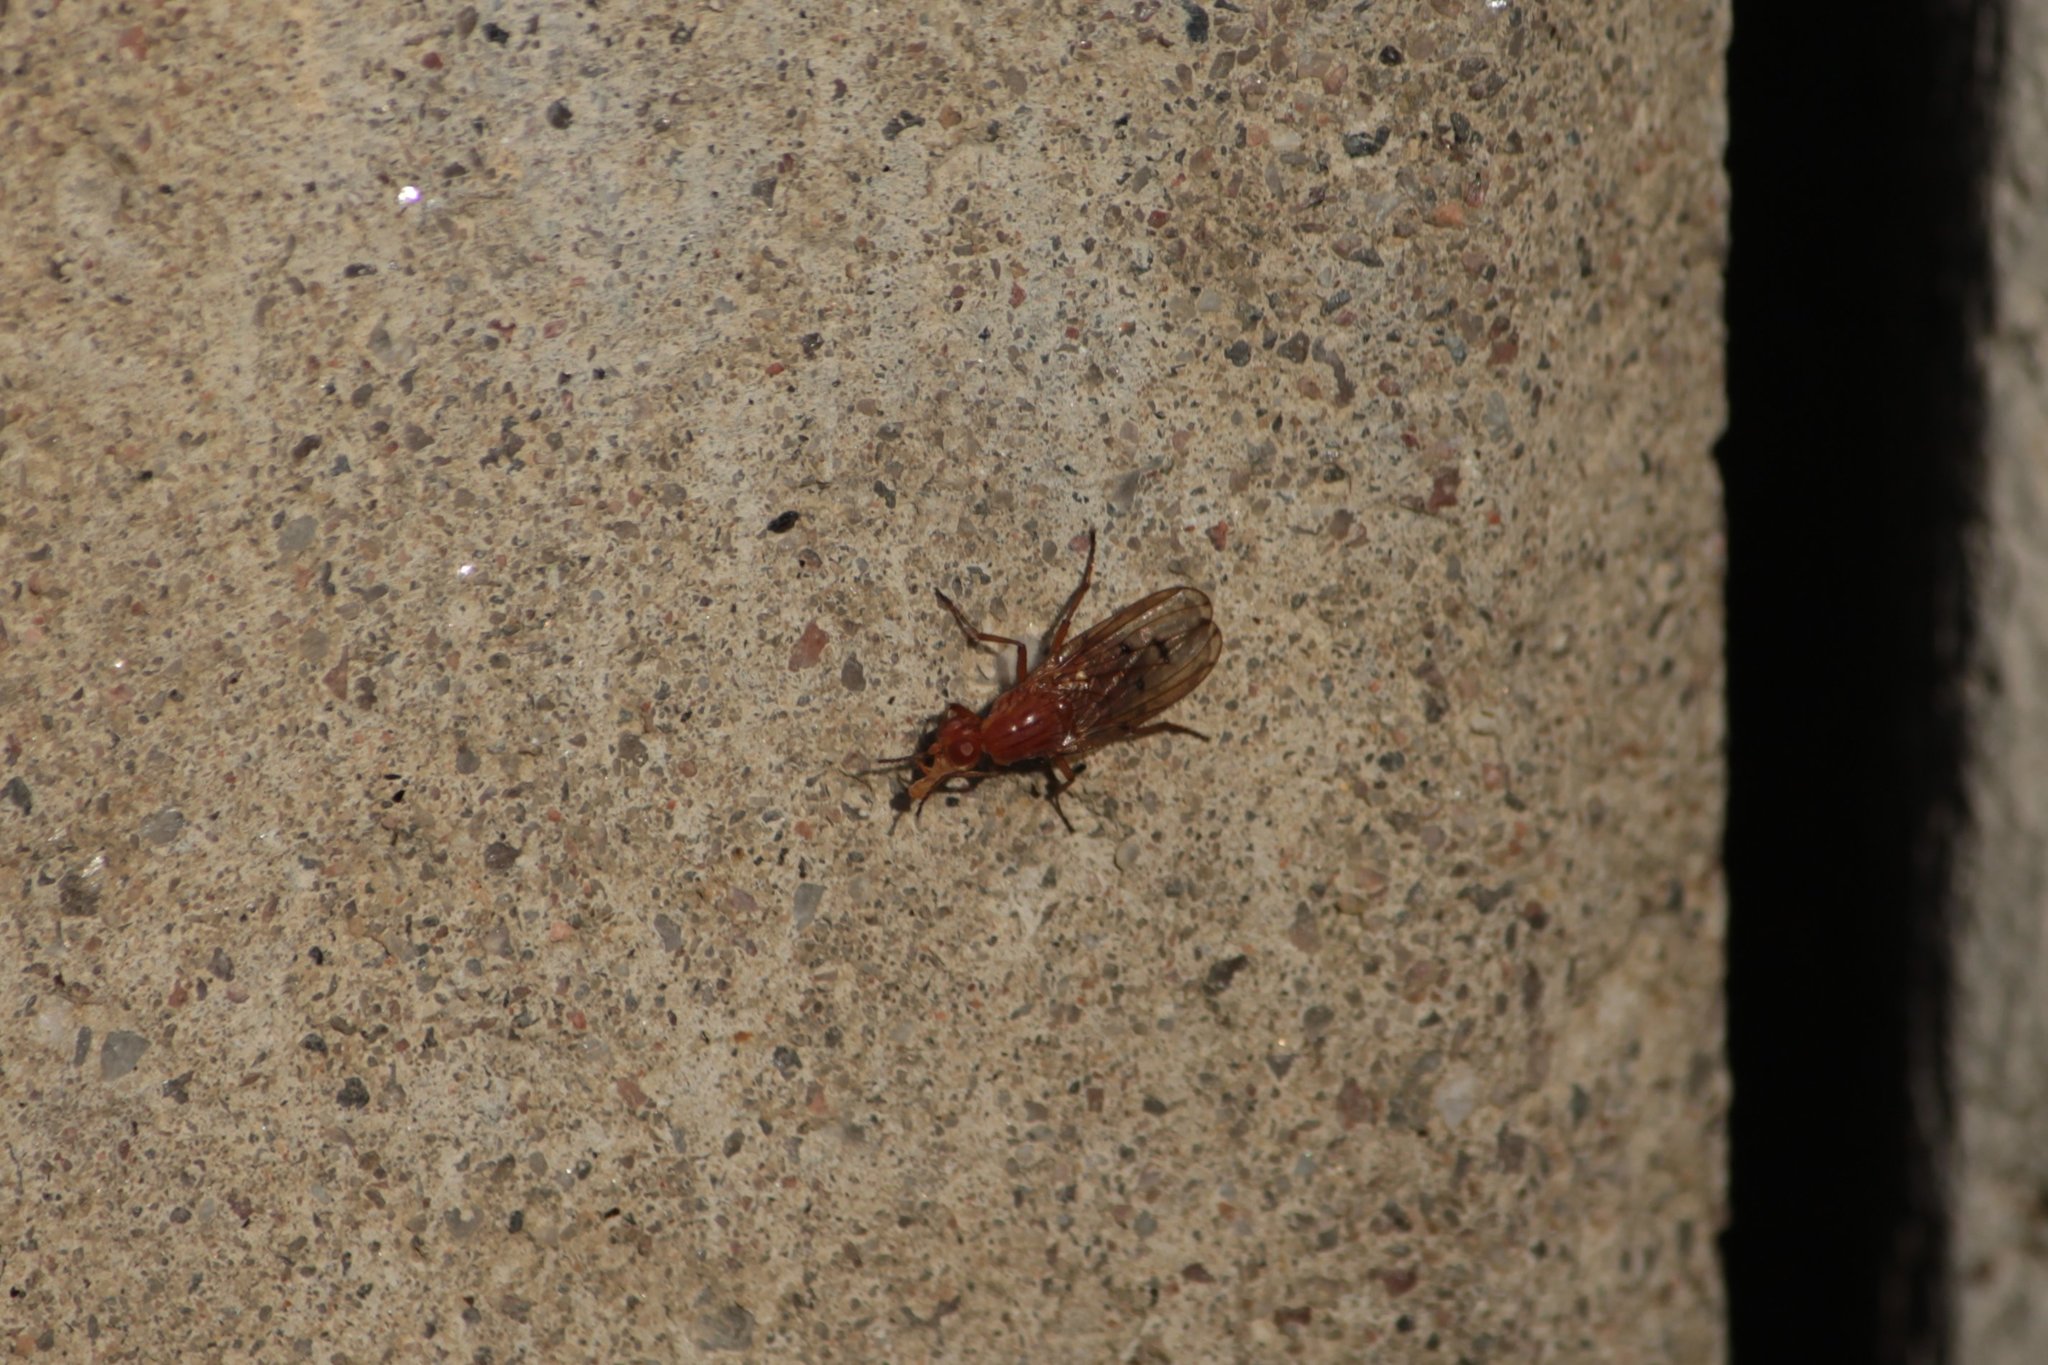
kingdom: Animalia
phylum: Arthropoda
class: Insecta
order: Diptera
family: Dryomyzidae
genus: Dryomyza
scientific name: Dryomyza anilis
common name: Marsh fly
